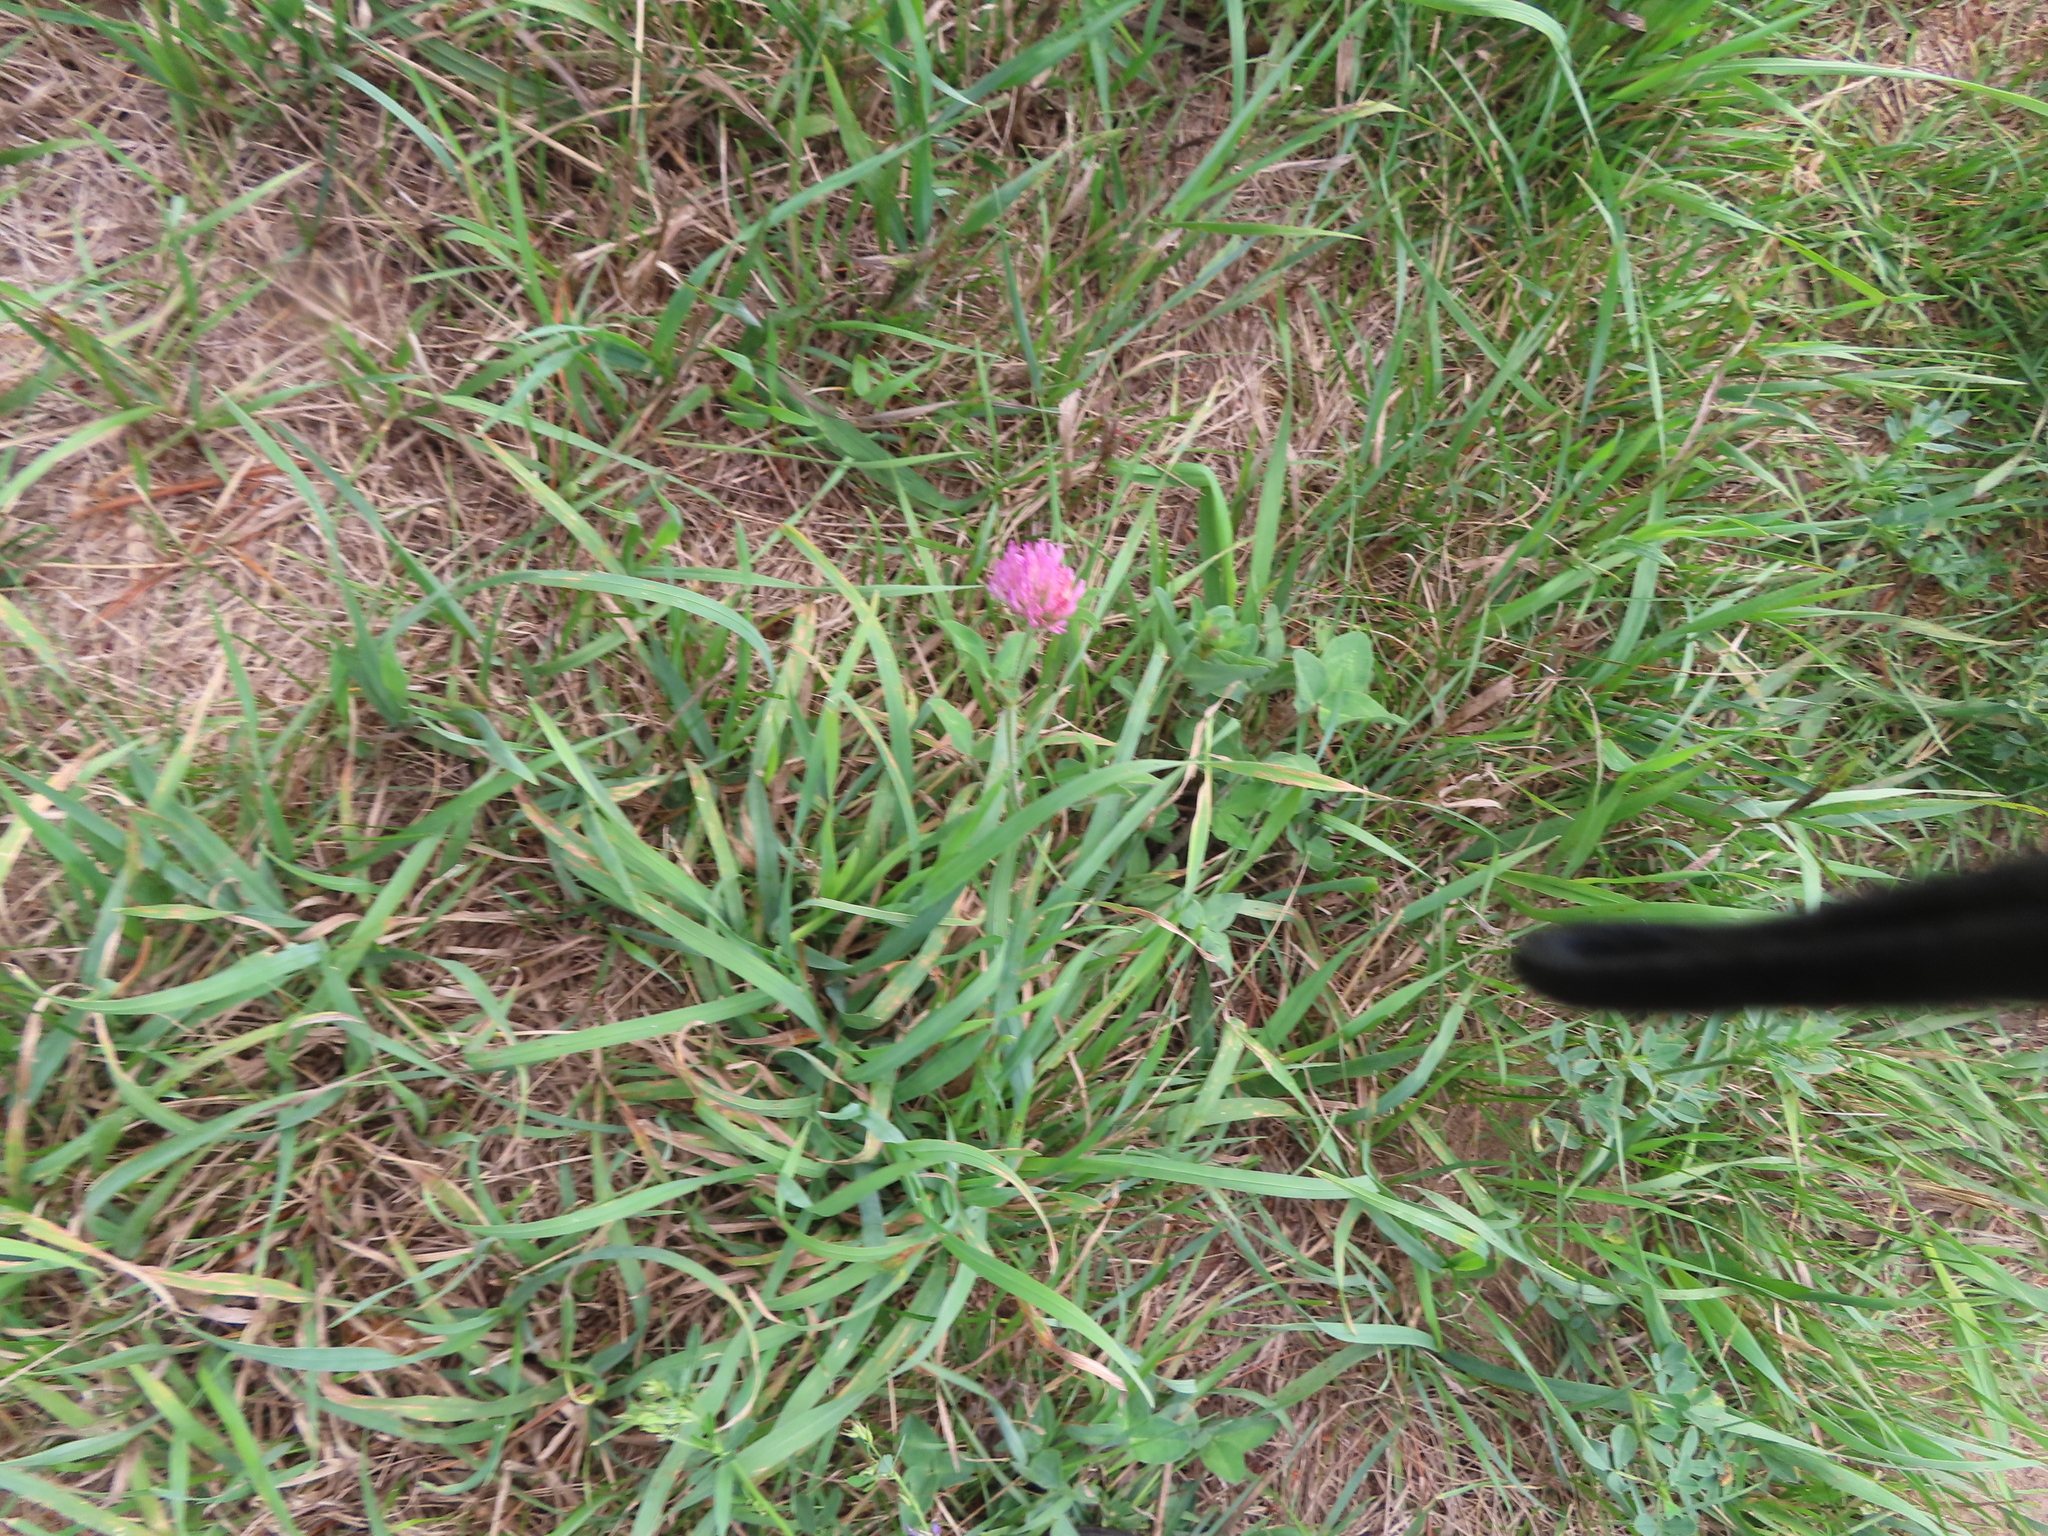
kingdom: Plantae
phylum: Tracheophyta
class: Magnoliopsida
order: Fabales
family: Fabaceae
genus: Trifolium
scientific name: Trifolium pratense
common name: Red clover
